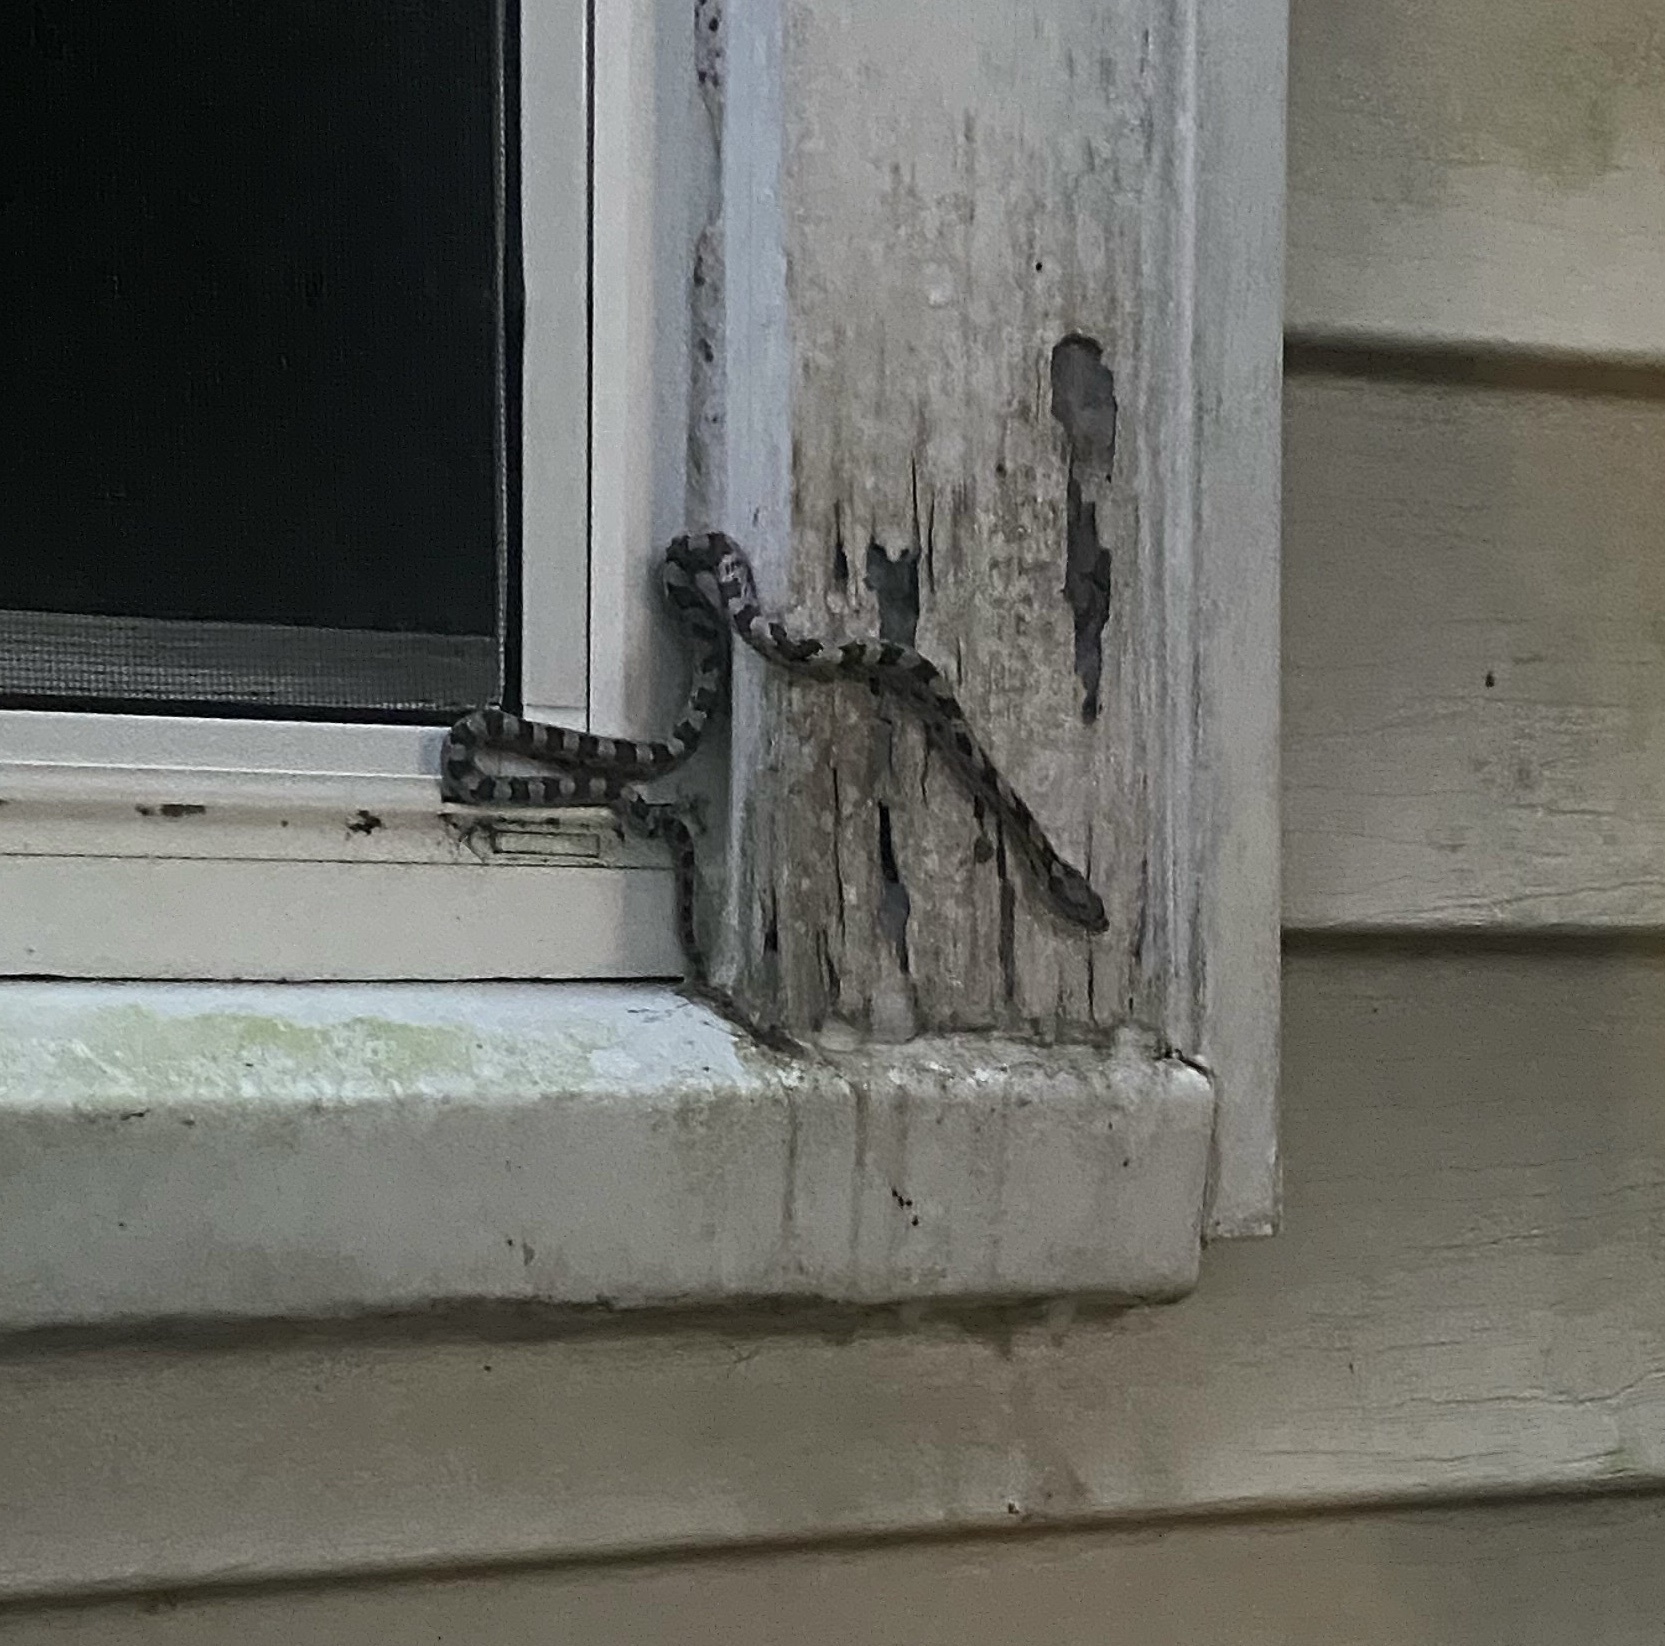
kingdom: Animalia
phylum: Chordata
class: Squamata
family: Colubridae
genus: Pantherophis
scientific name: Pantherophis alleghaniensis
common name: Eastern rat snake
